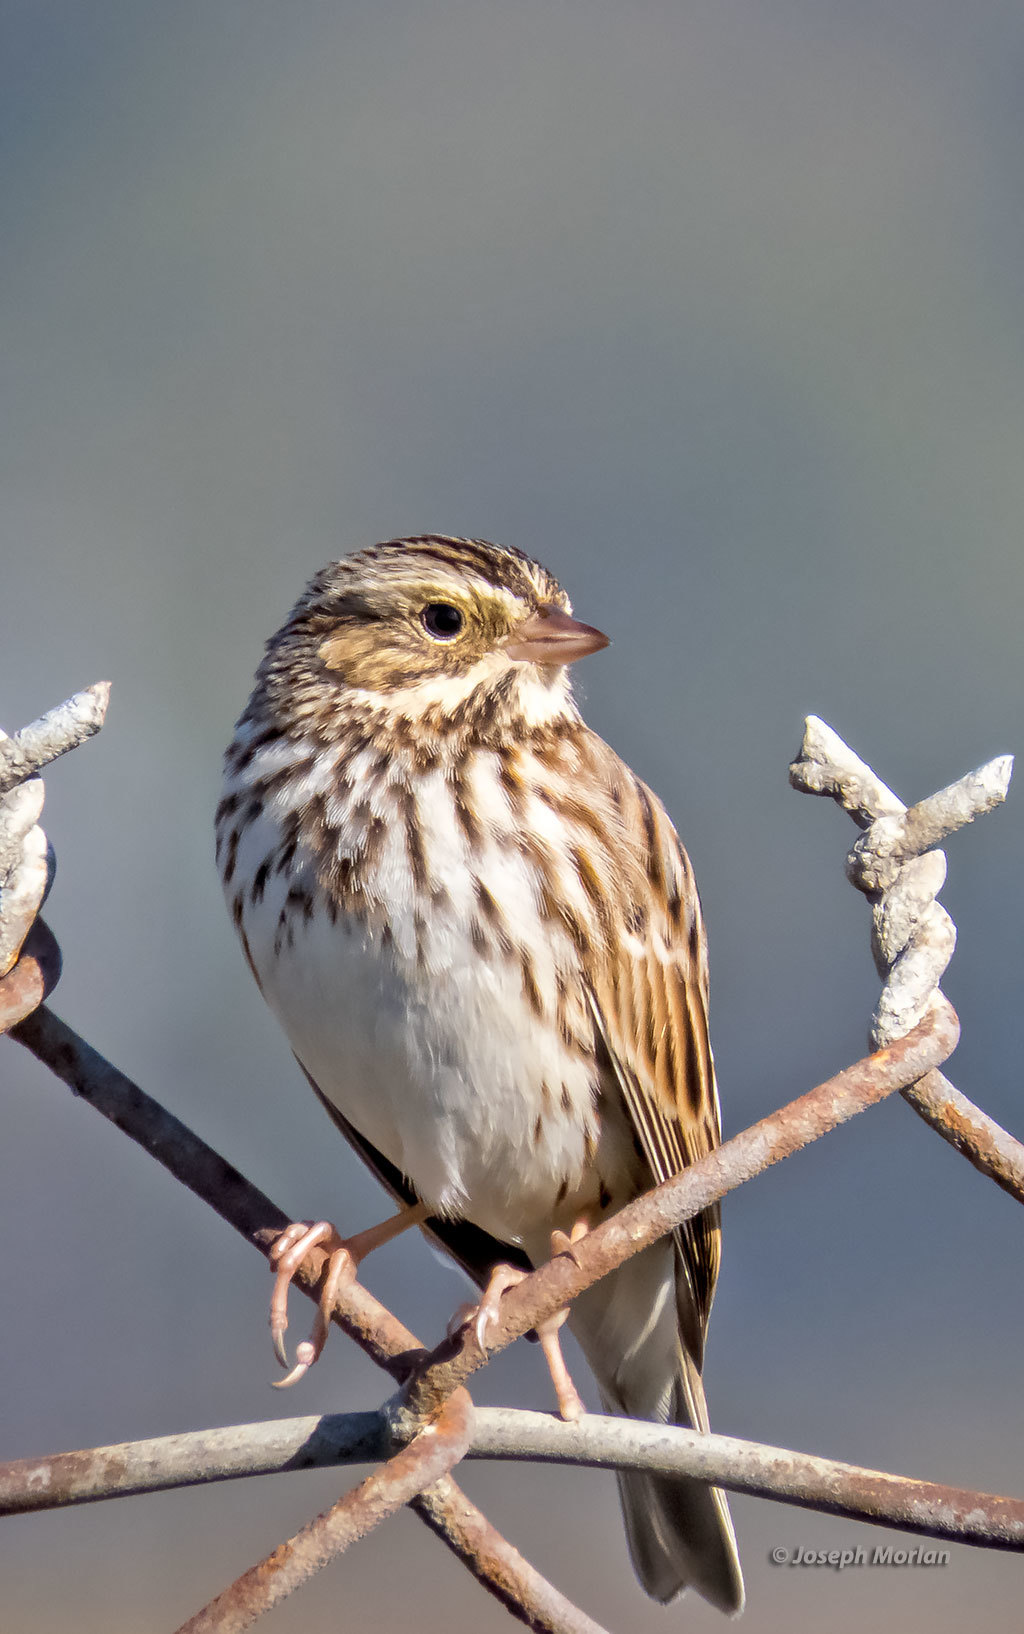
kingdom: Animalia
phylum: Chordata
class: Aves
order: Passeriformes
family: Passerellidae
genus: Passerculus
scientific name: Passerculus sandwichensis
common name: Savannah sparrow
